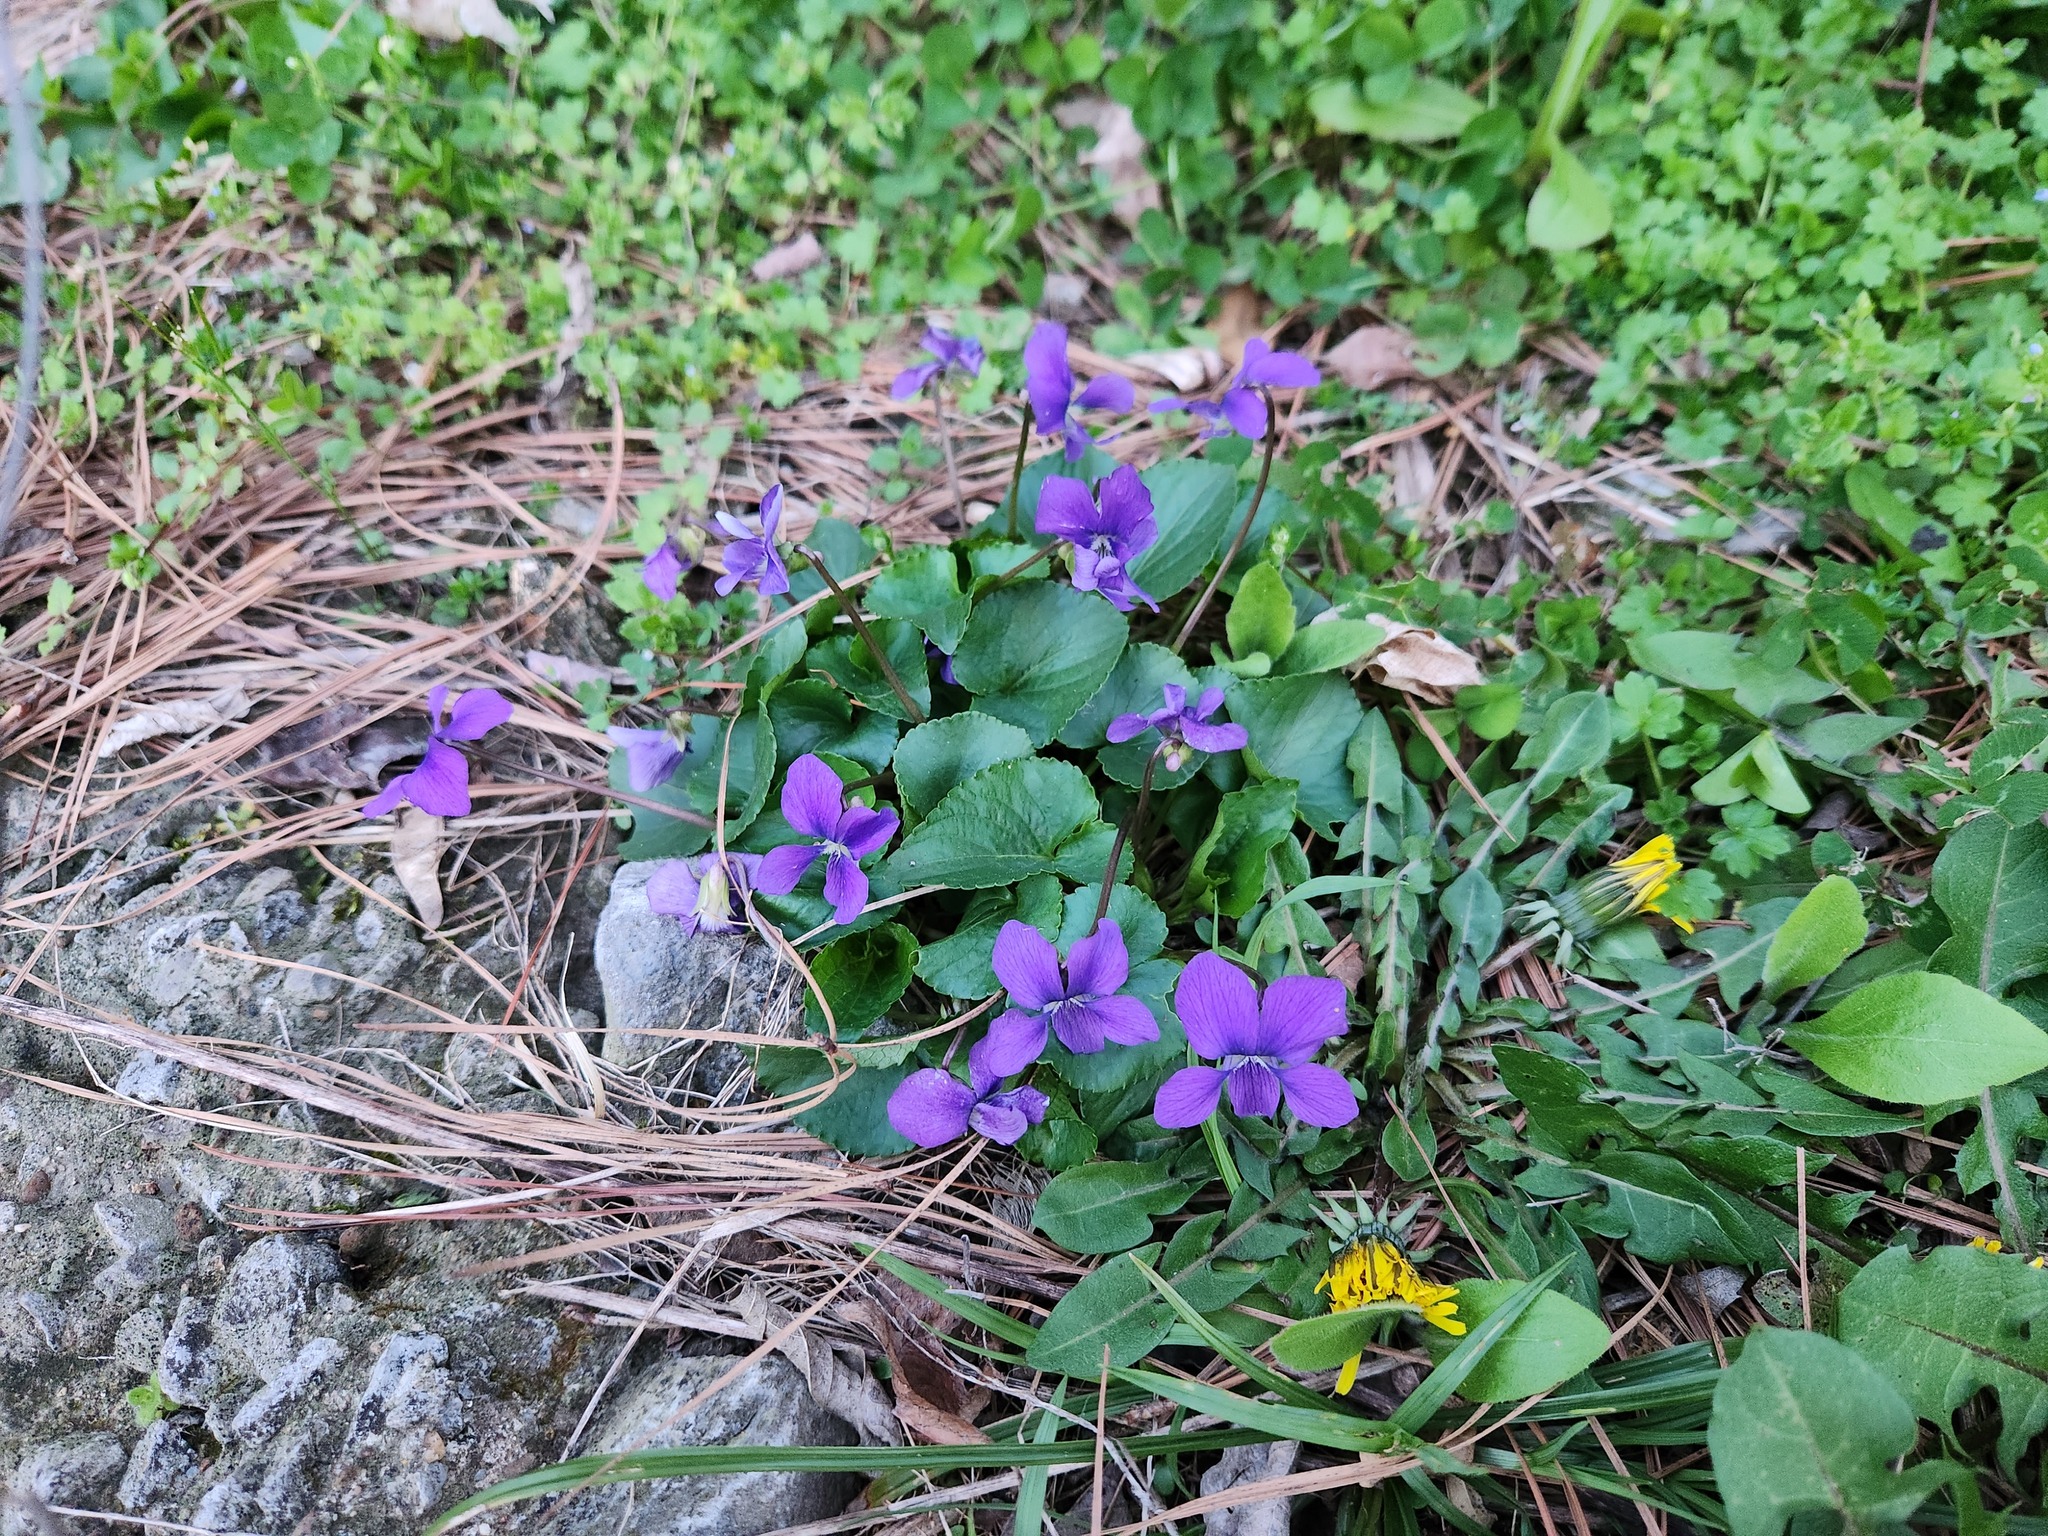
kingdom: Plantae
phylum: Tracheophyta
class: Magnoliopsida
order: Malpighiales
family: Violaceae
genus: Viola
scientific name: Viola sororia
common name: Dooryard violet
